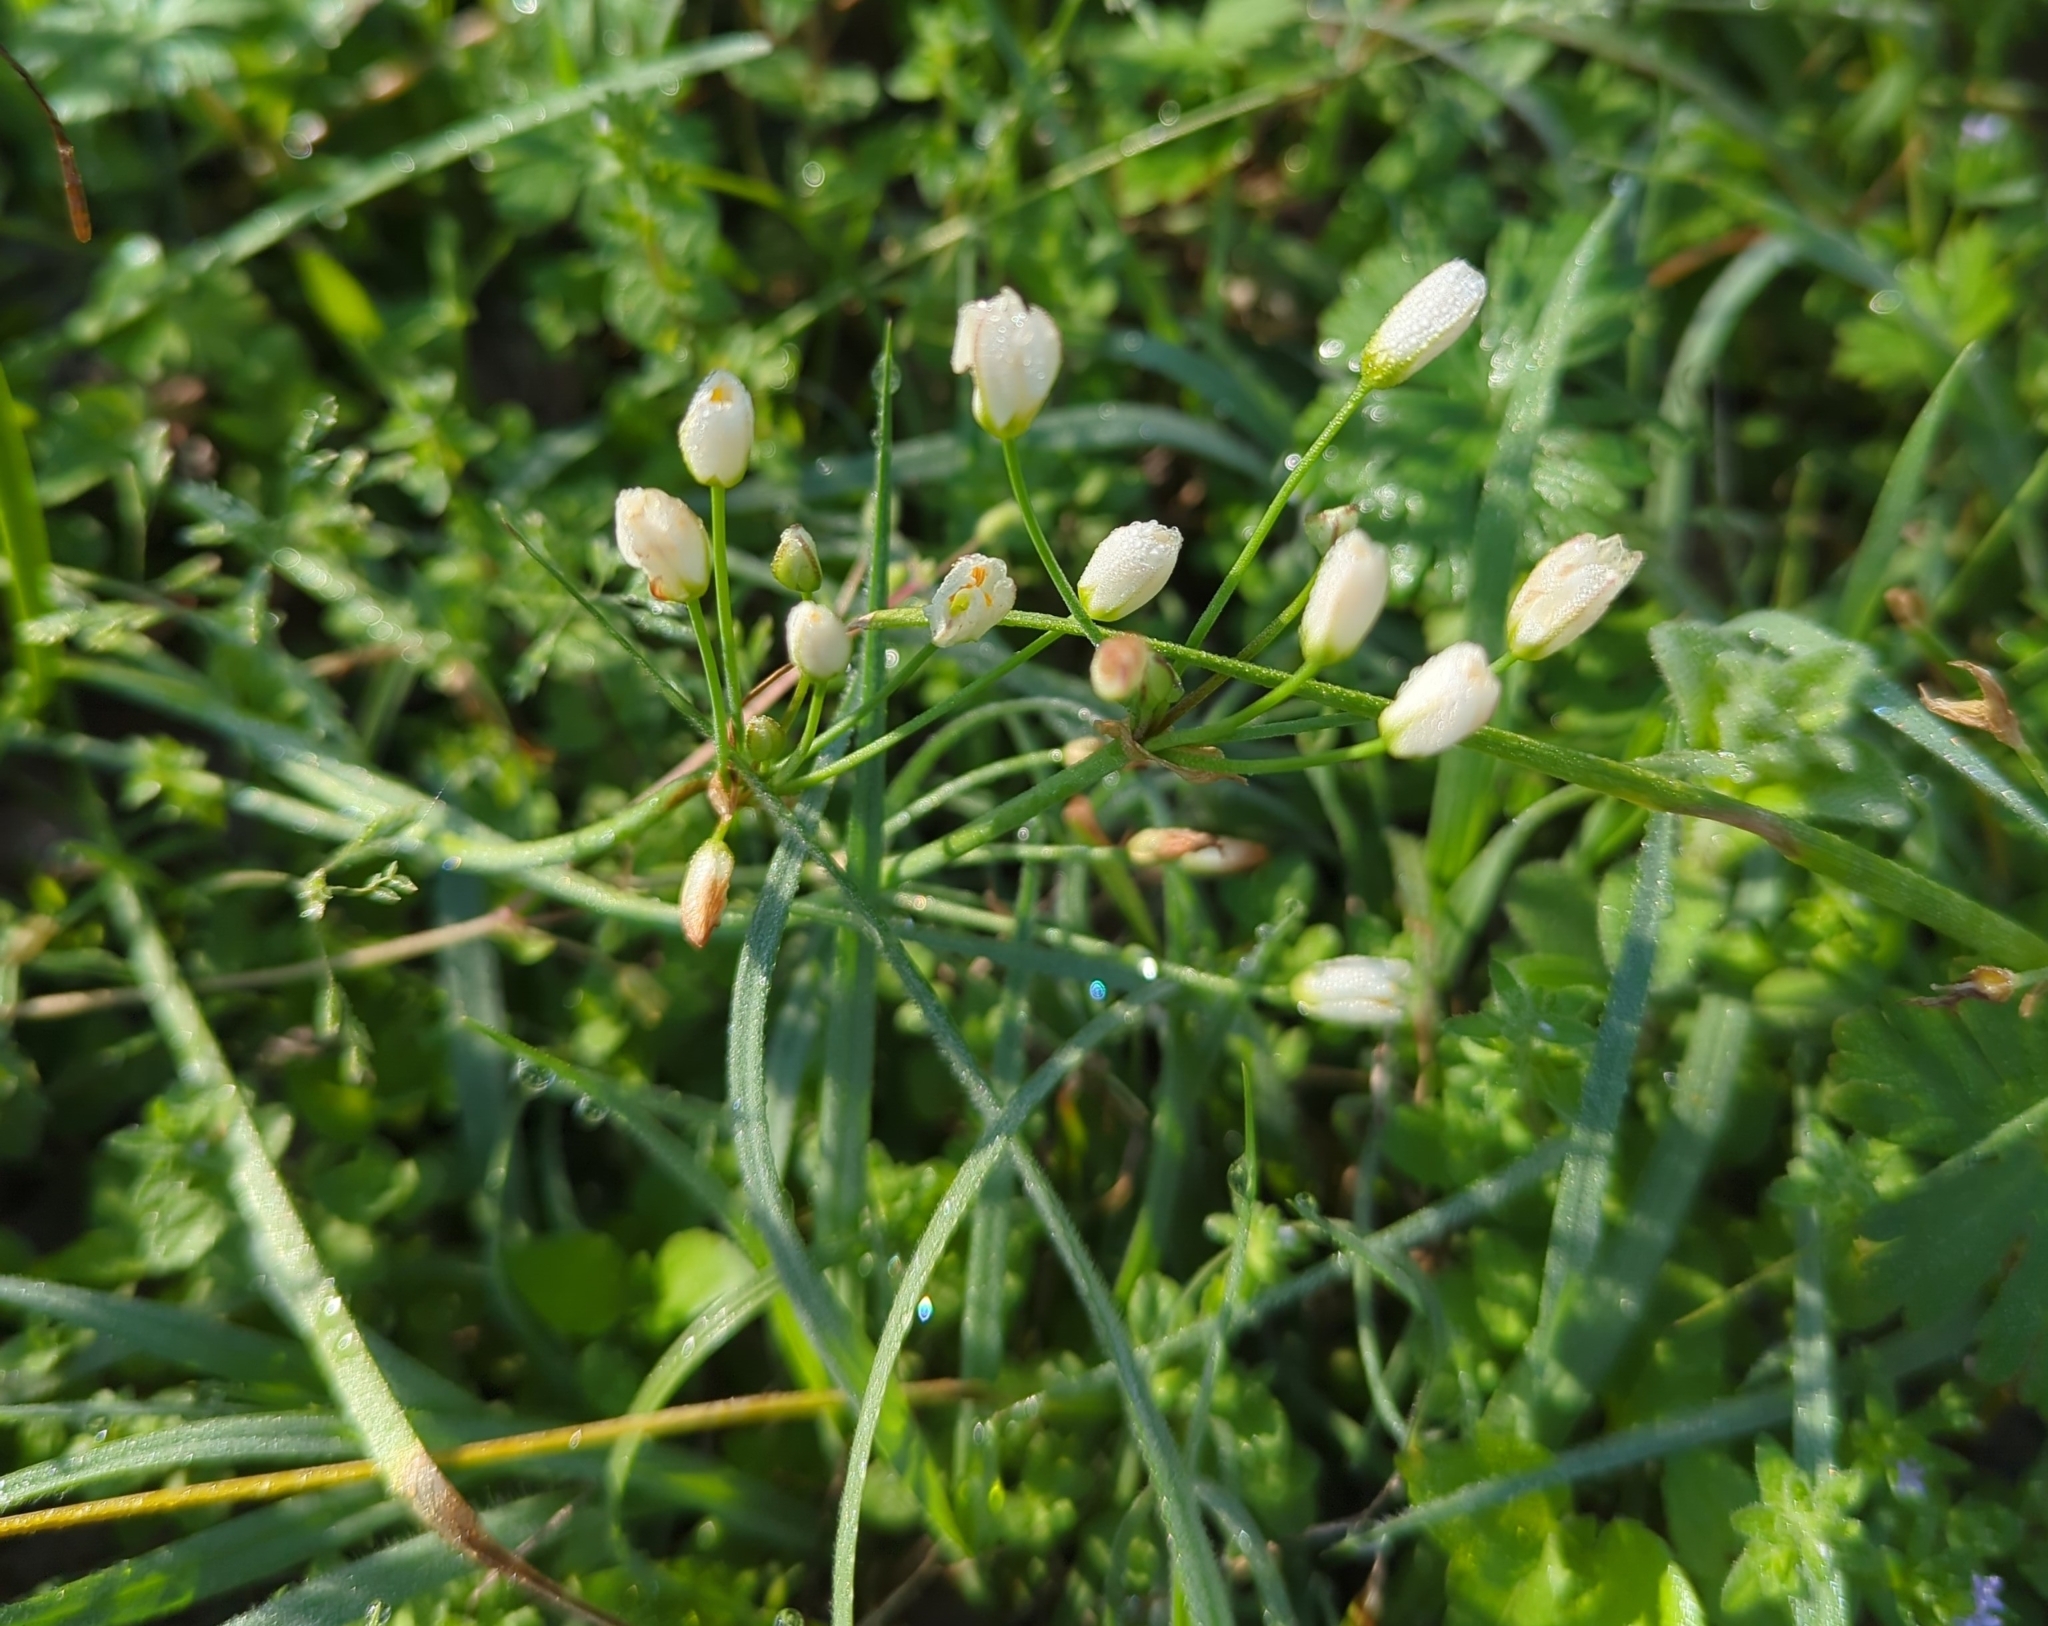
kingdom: Plantae
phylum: Tracheophyta
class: Liliopsida
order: Asparagales
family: Amaryllidaceae
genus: Nothoscordum
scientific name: Nothoscordum bivalve
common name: Crow-poison
